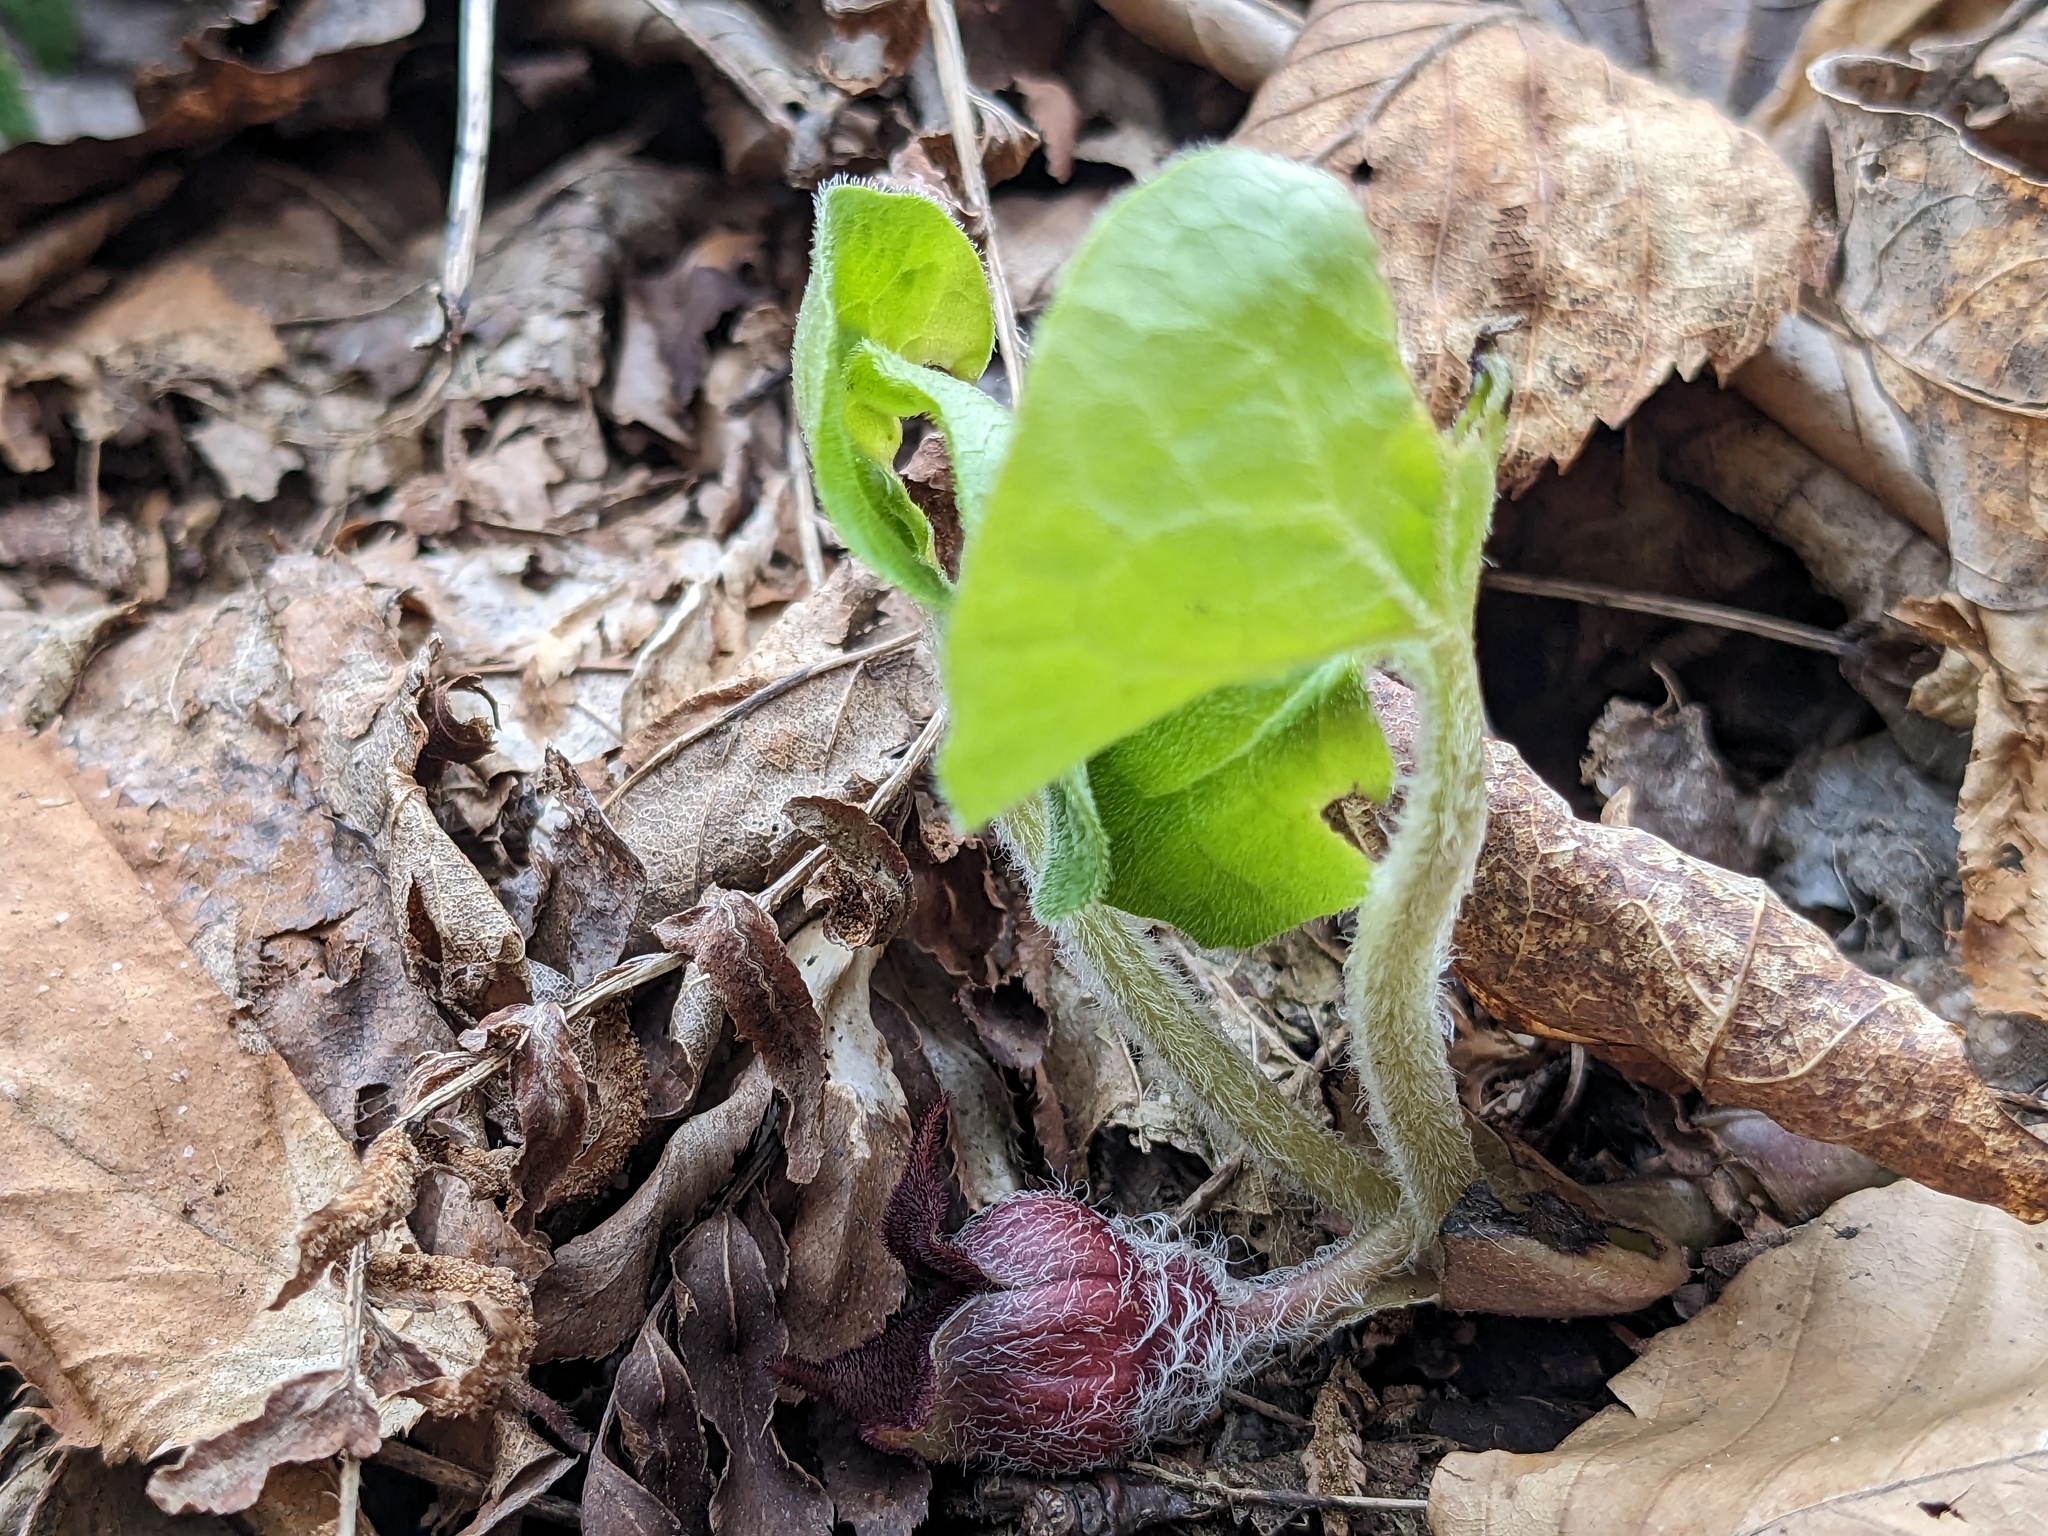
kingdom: Plantae
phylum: Tracheophyta
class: Magnoliopsida
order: Piperales
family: Aristolochiaceae
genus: Asarum
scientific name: Asarum canadense
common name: Wild ginger
